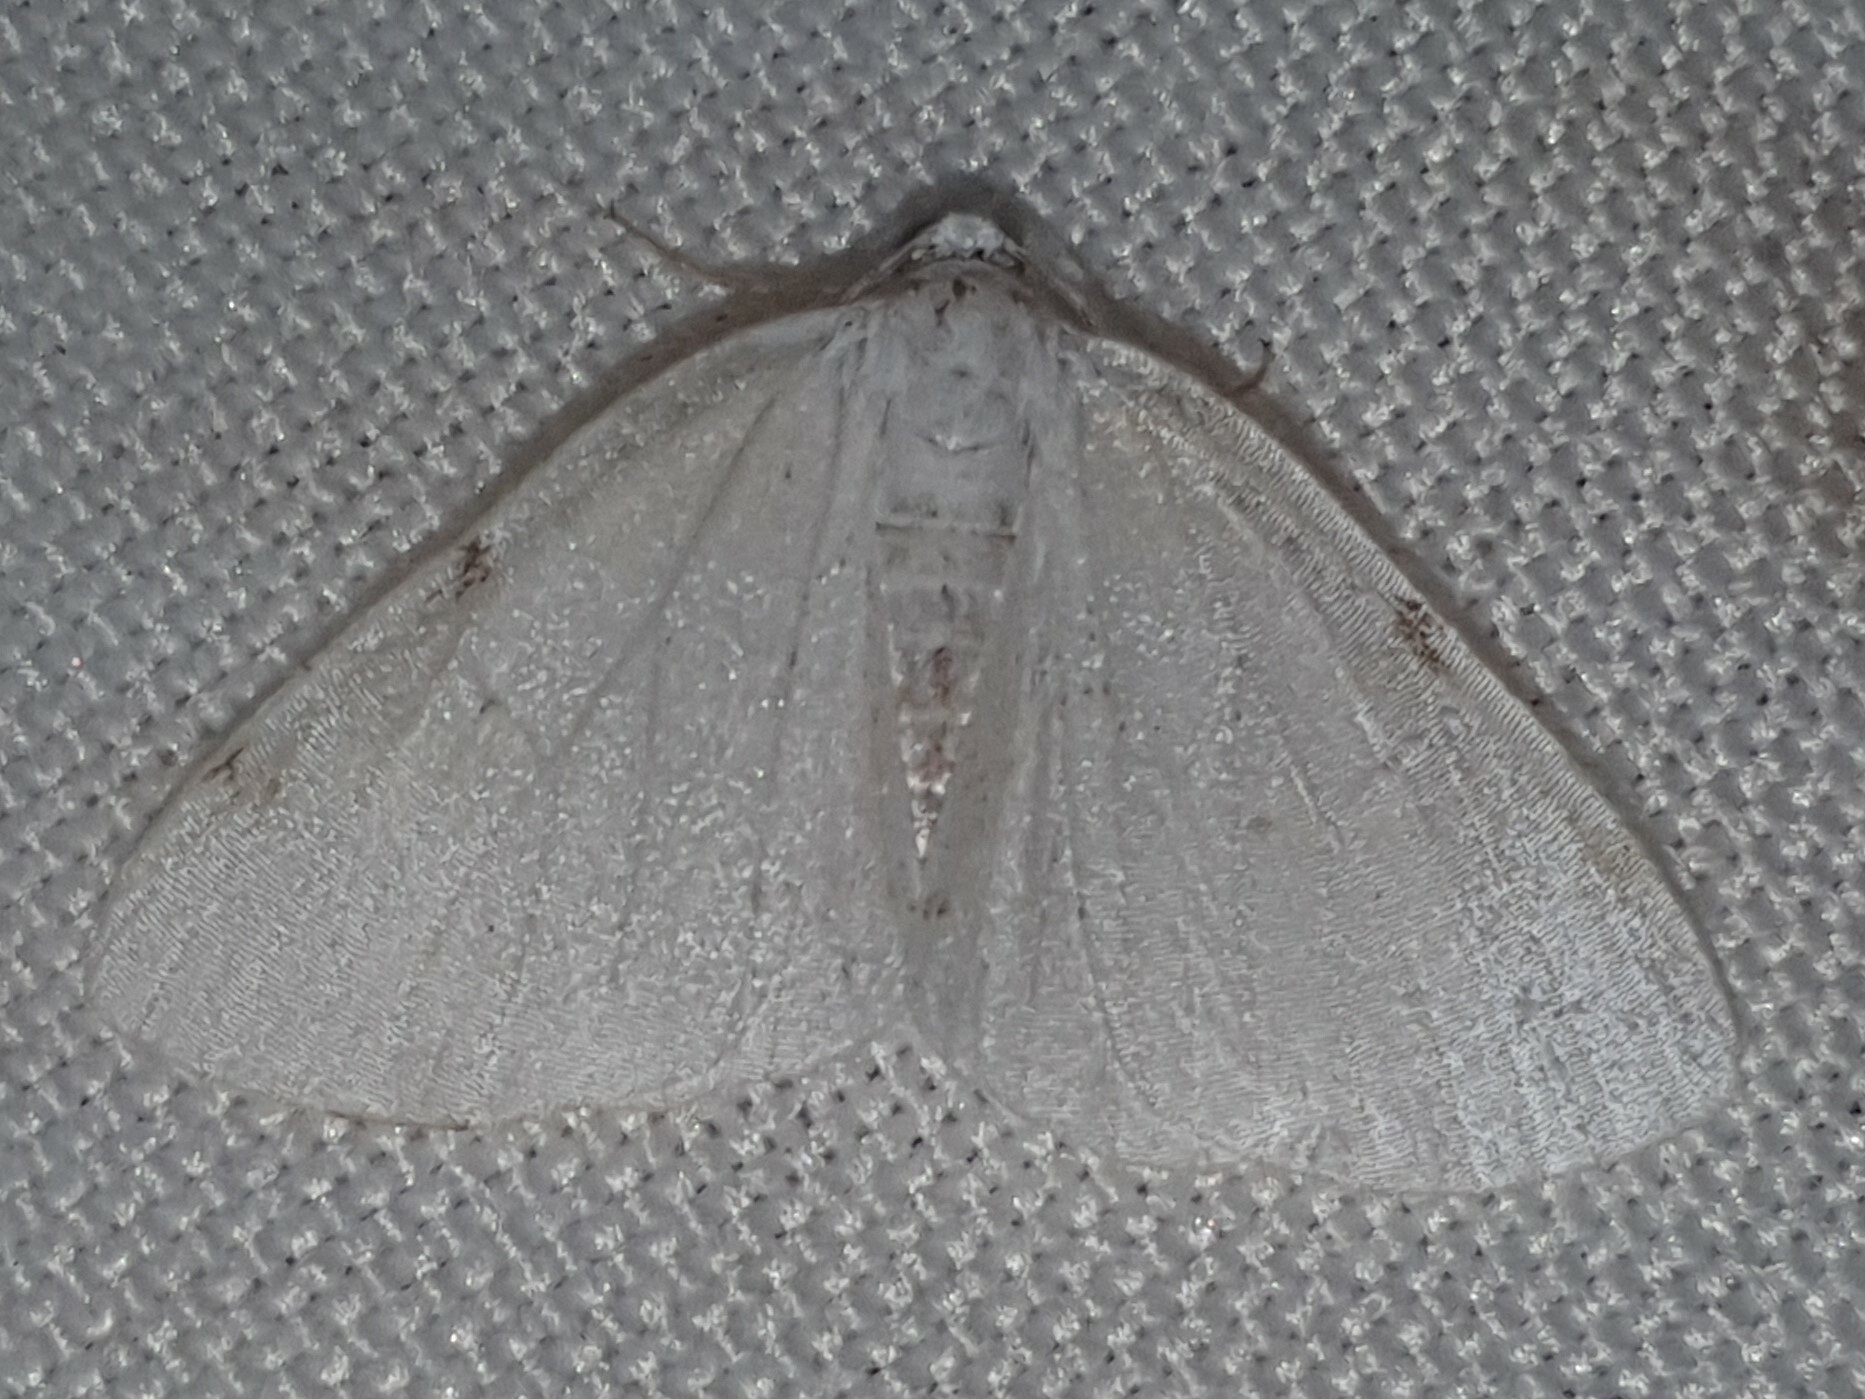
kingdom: Animalia
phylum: Arthropoda
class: Insecta
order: Lepidoptera
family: Geometridae
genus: Lomographa
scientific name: Lomographa bimaculata
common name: White-pinion spotted
